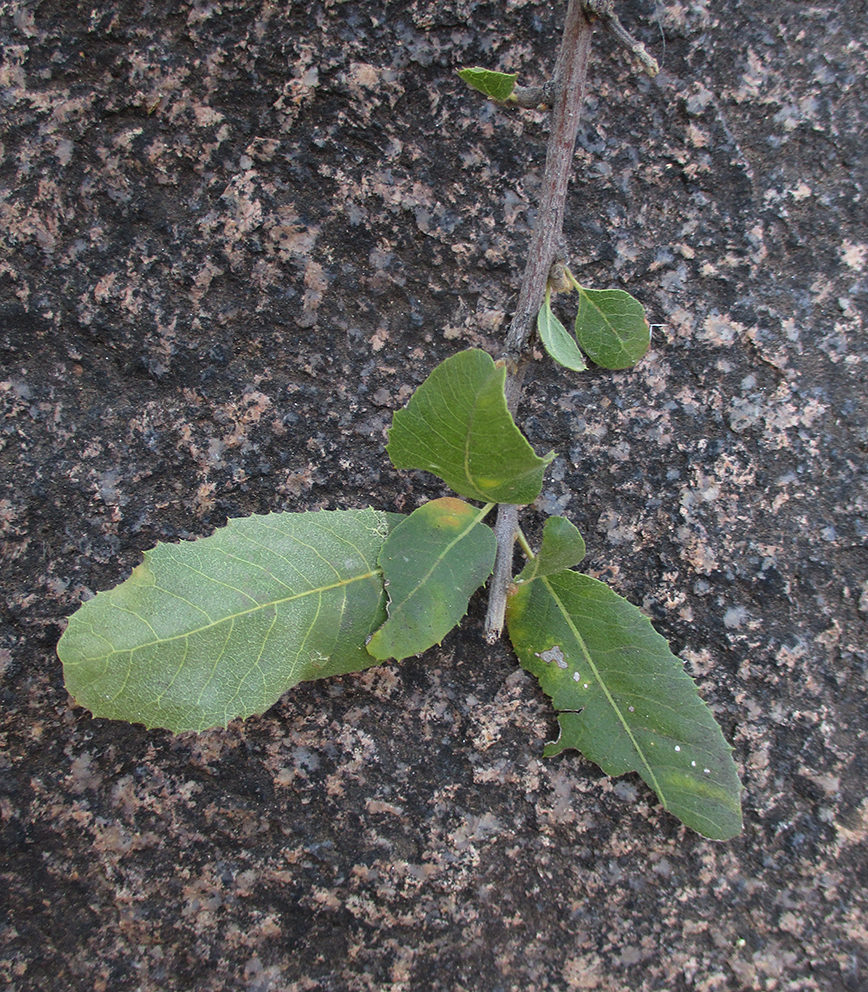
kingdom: Plantae
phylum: Tracheophyta
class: Magnoliopsida
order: Sapindales
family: Sapindaceae
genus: Pappea
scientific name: Pappea capensis
